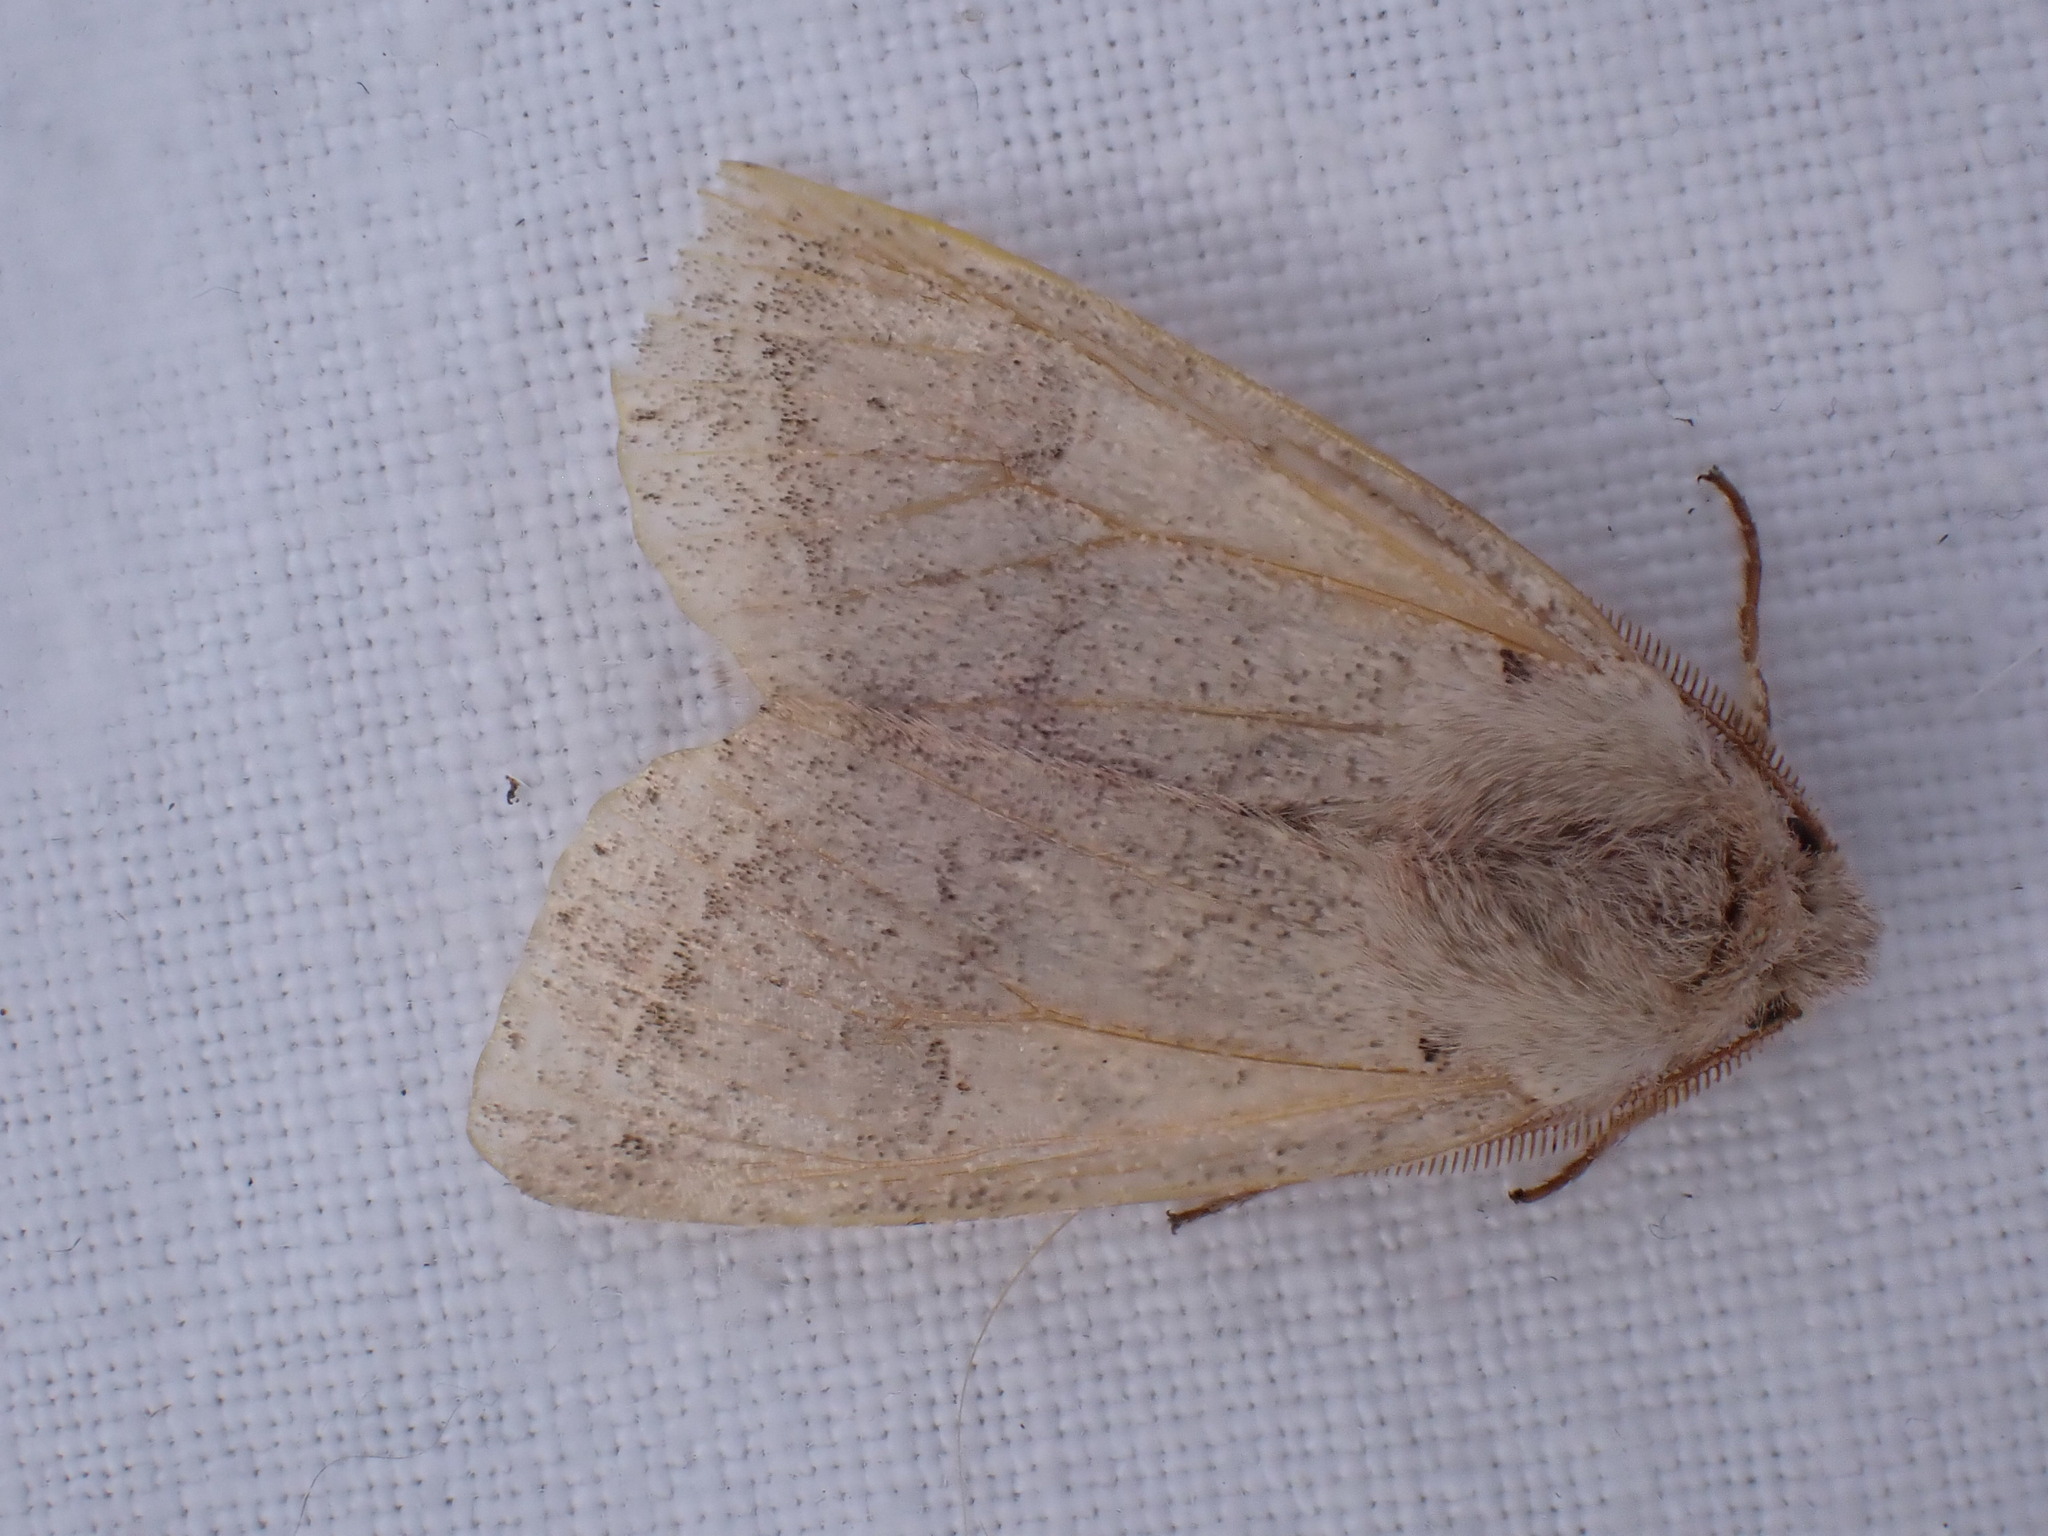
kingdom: Animalia
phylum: Arthropoda
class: Insecta
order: Lepidoptera
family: Noctuidae
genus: Orthosia
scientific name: Orthosia cerasi
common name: Common quaker
